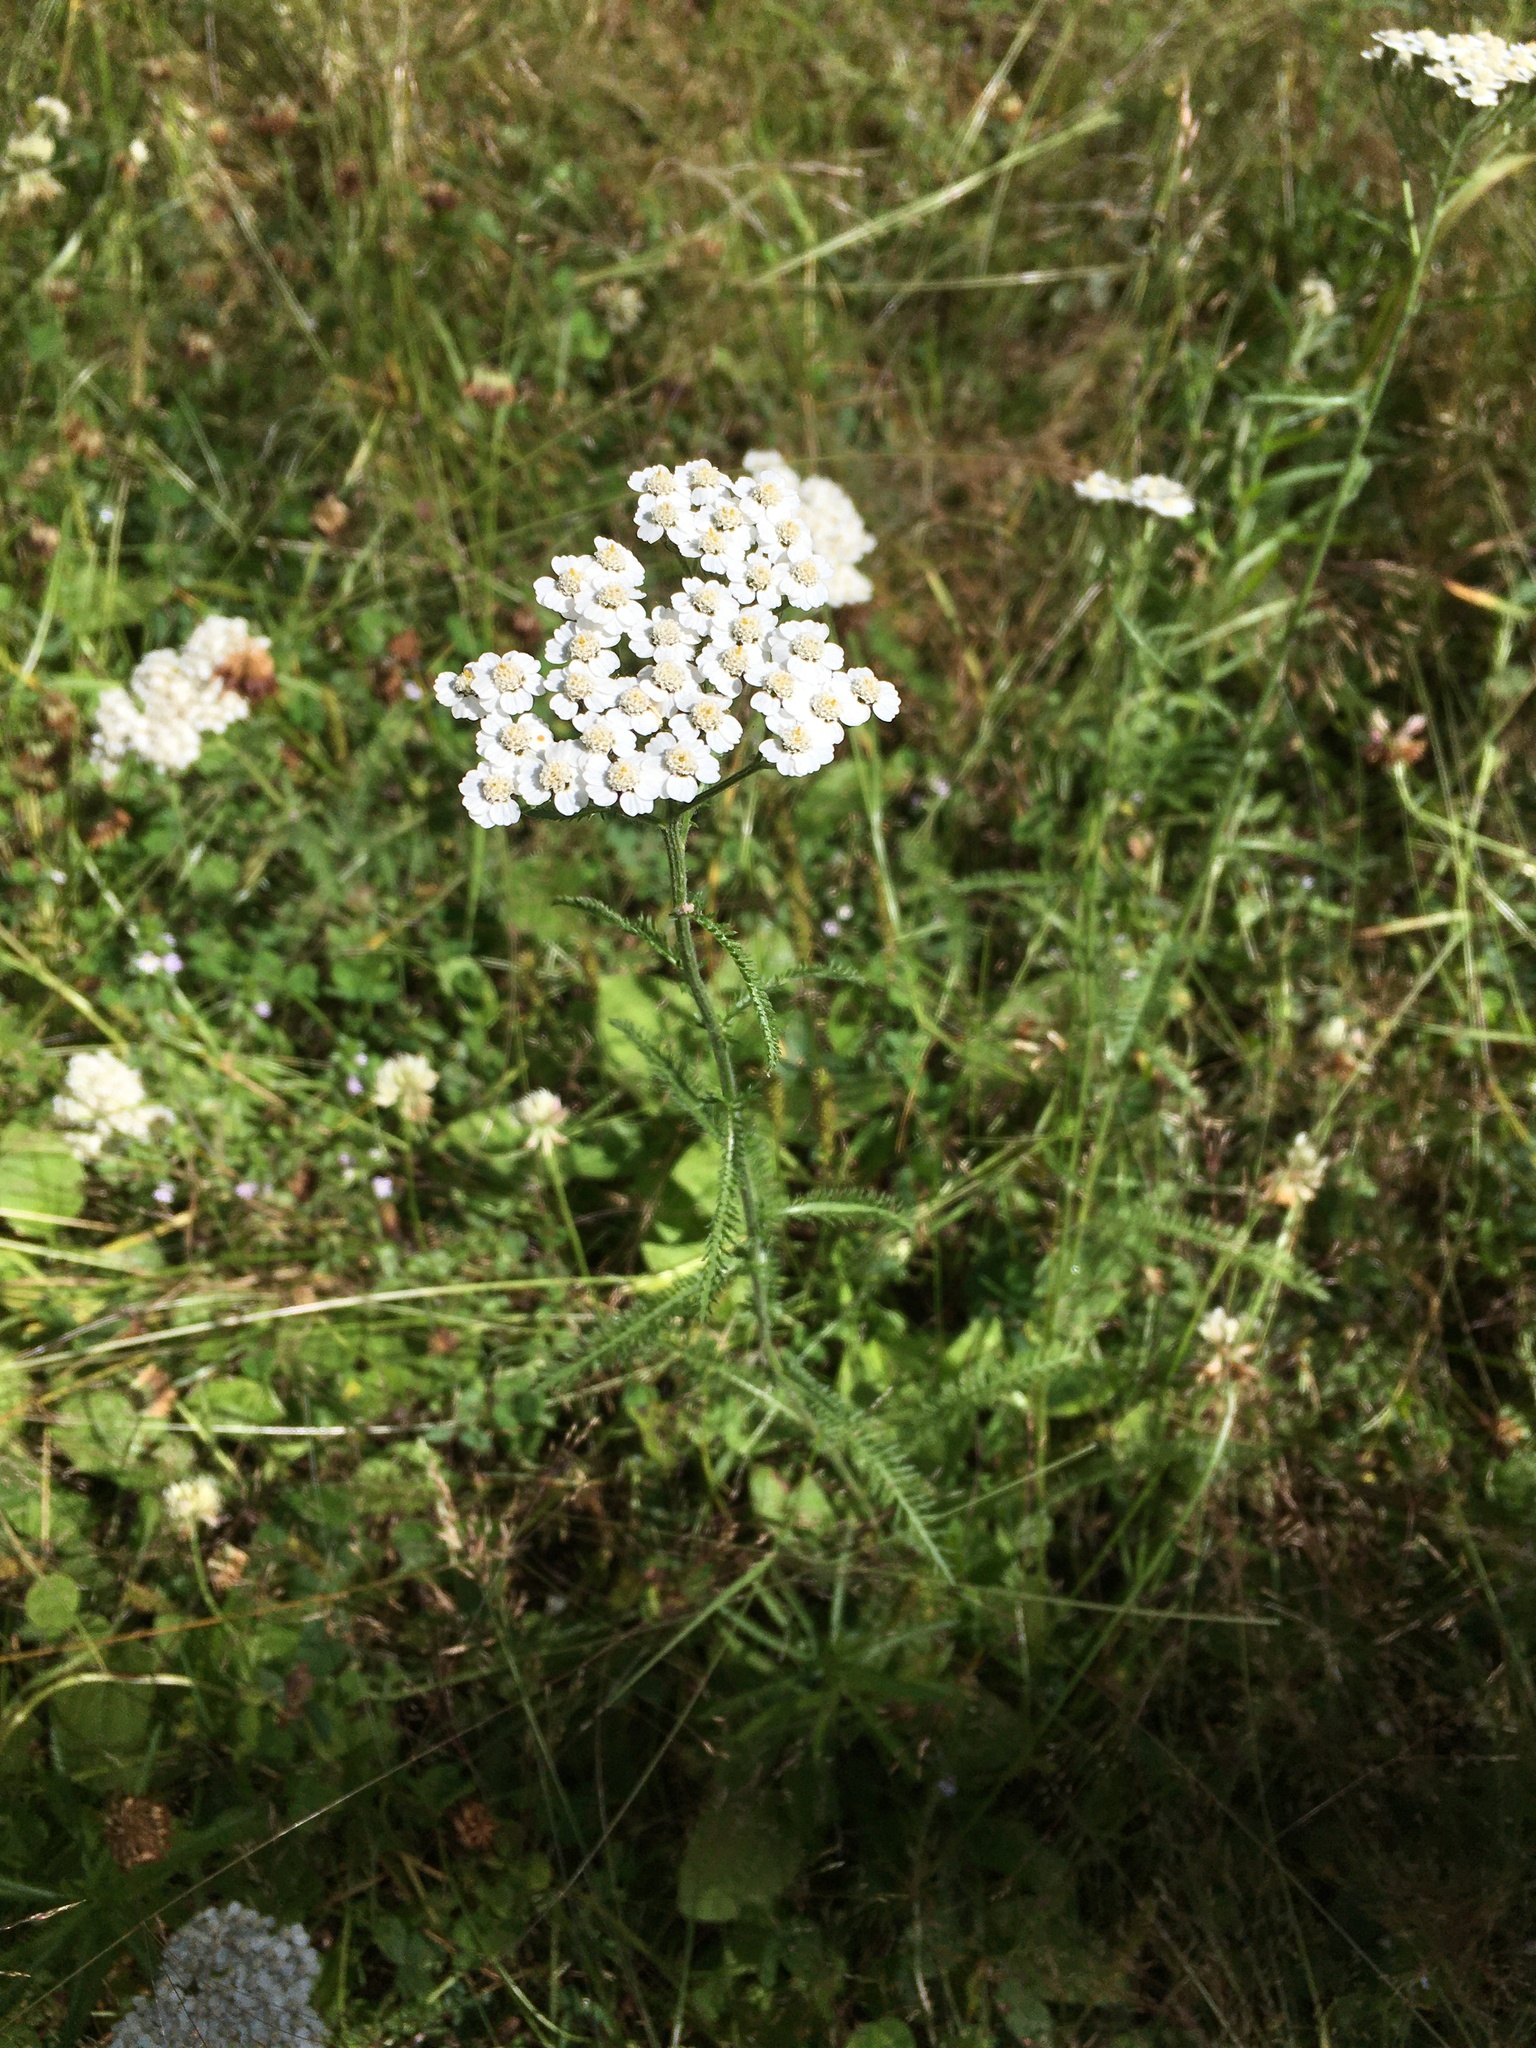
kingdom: Plantae
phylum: Tracheophyta
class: Magnoliopsida
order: Asterales
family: Asteraceae
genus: Achillea
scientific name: Achillea millefolium
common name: Yarrow
